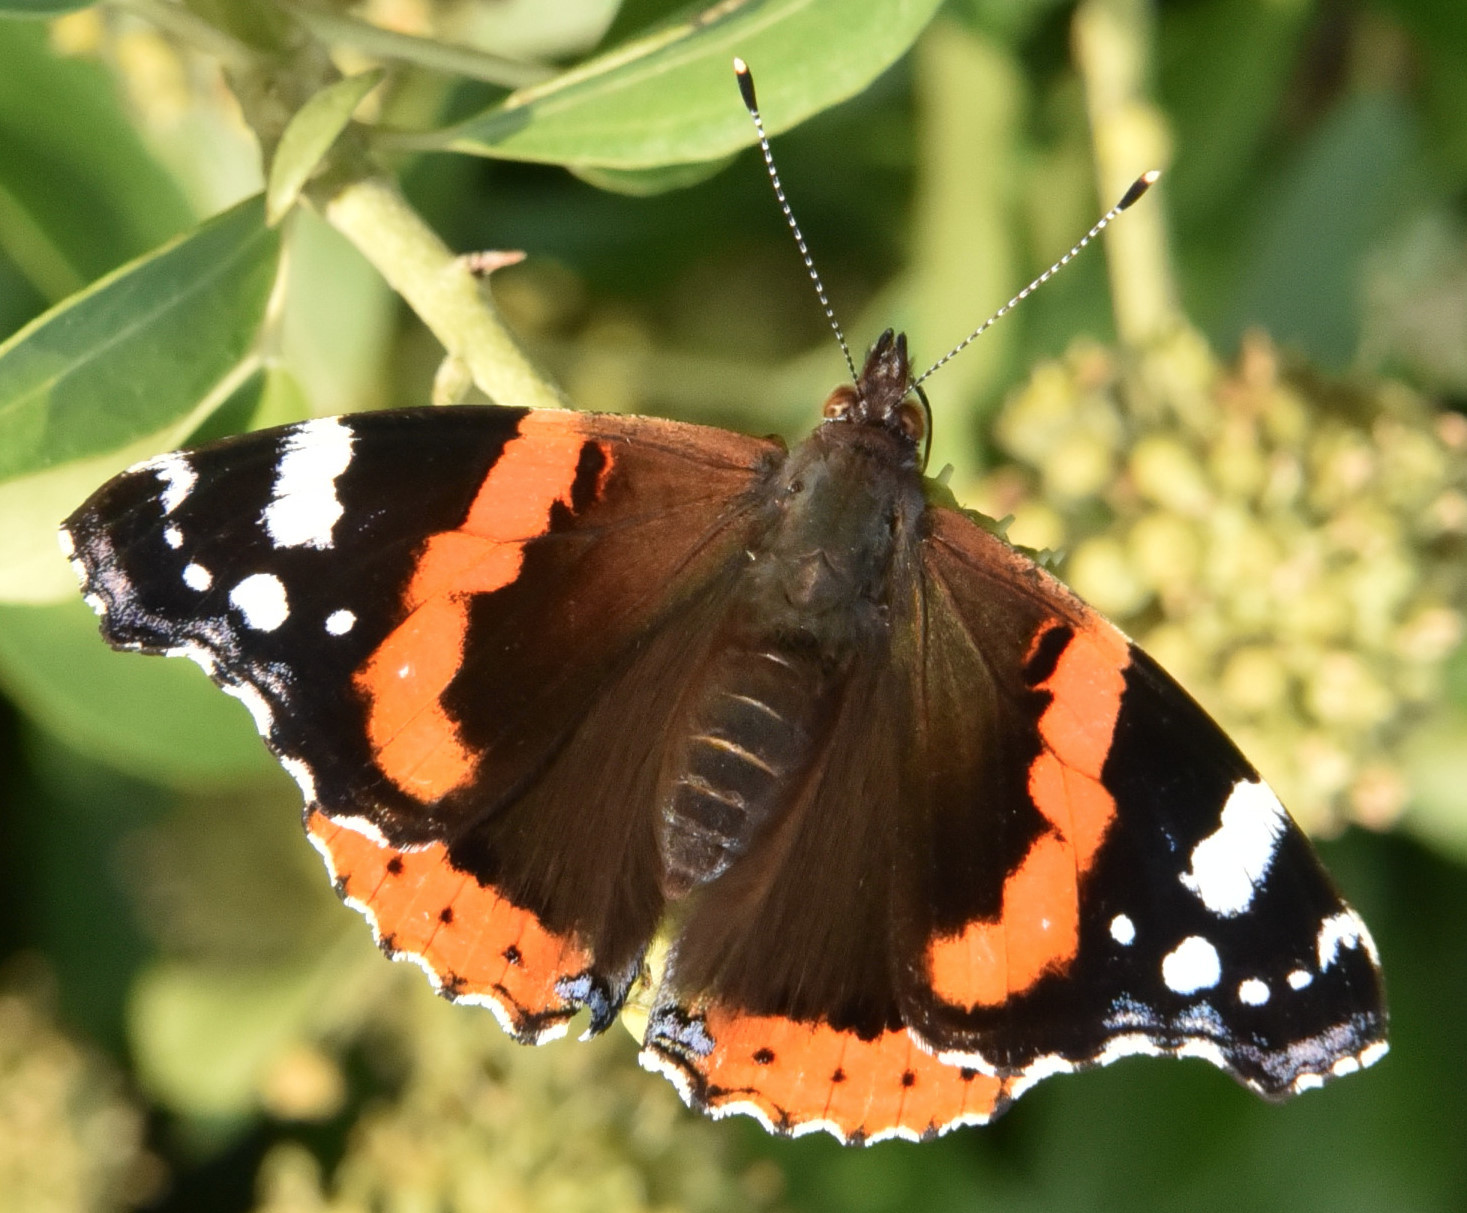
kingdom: Animalia
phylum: Arthropoda
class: Insecta
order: Lepidoptera
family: Nymphalidae
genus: Vanessa
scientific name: Vanessa atalanta
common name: Red admiral
